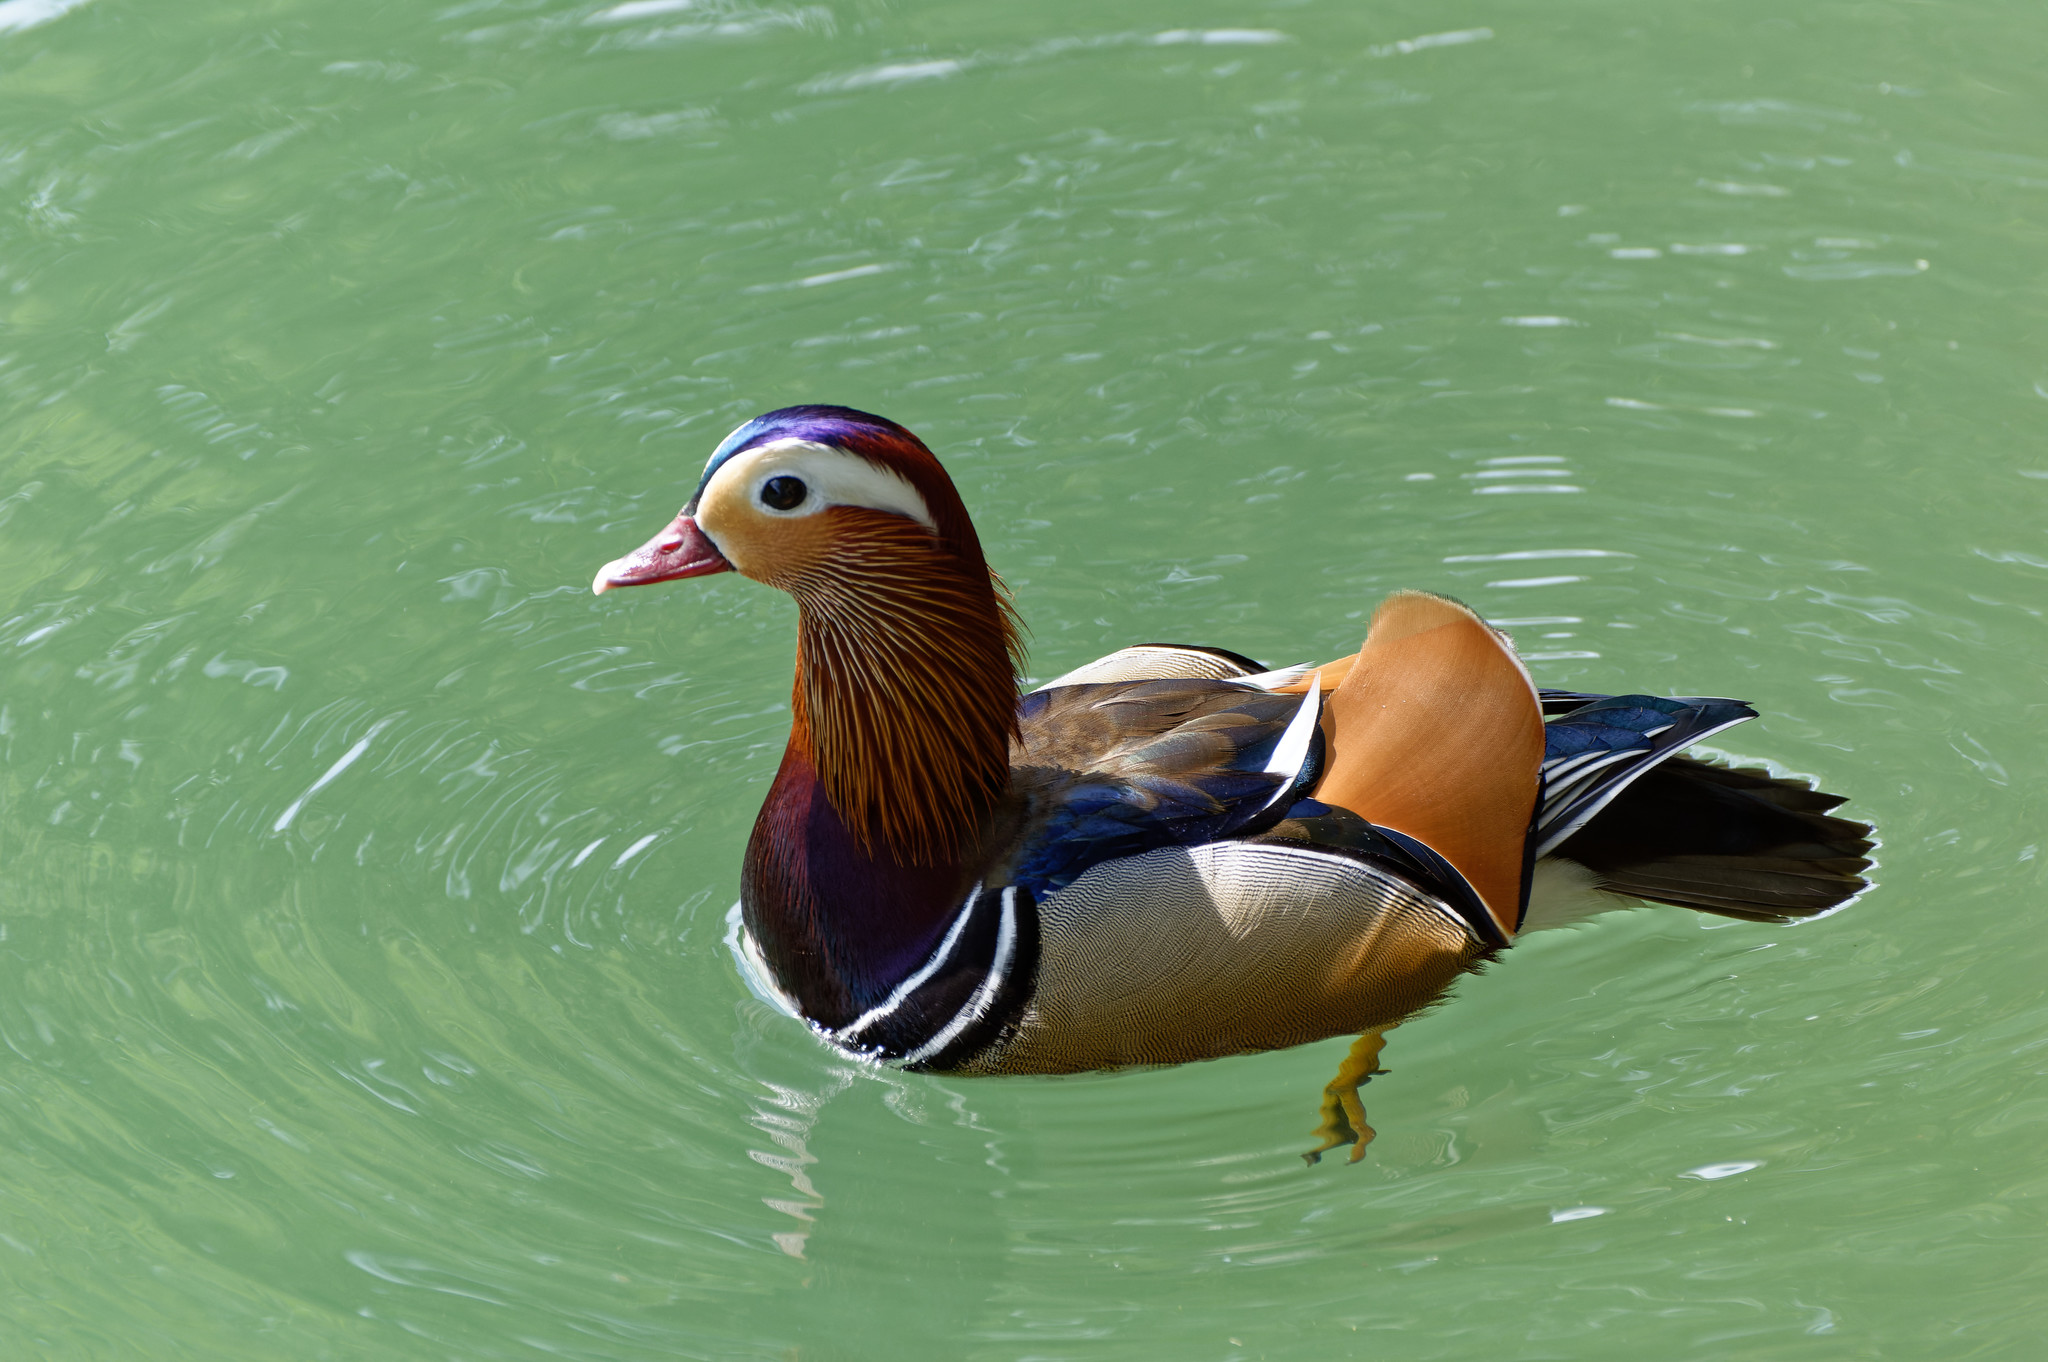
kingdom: Animalia
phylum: Chordata
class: Aves
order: Anseriformes
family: Anatidae
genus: Aix
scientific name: Aix galericulata
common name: Mandarin duck
